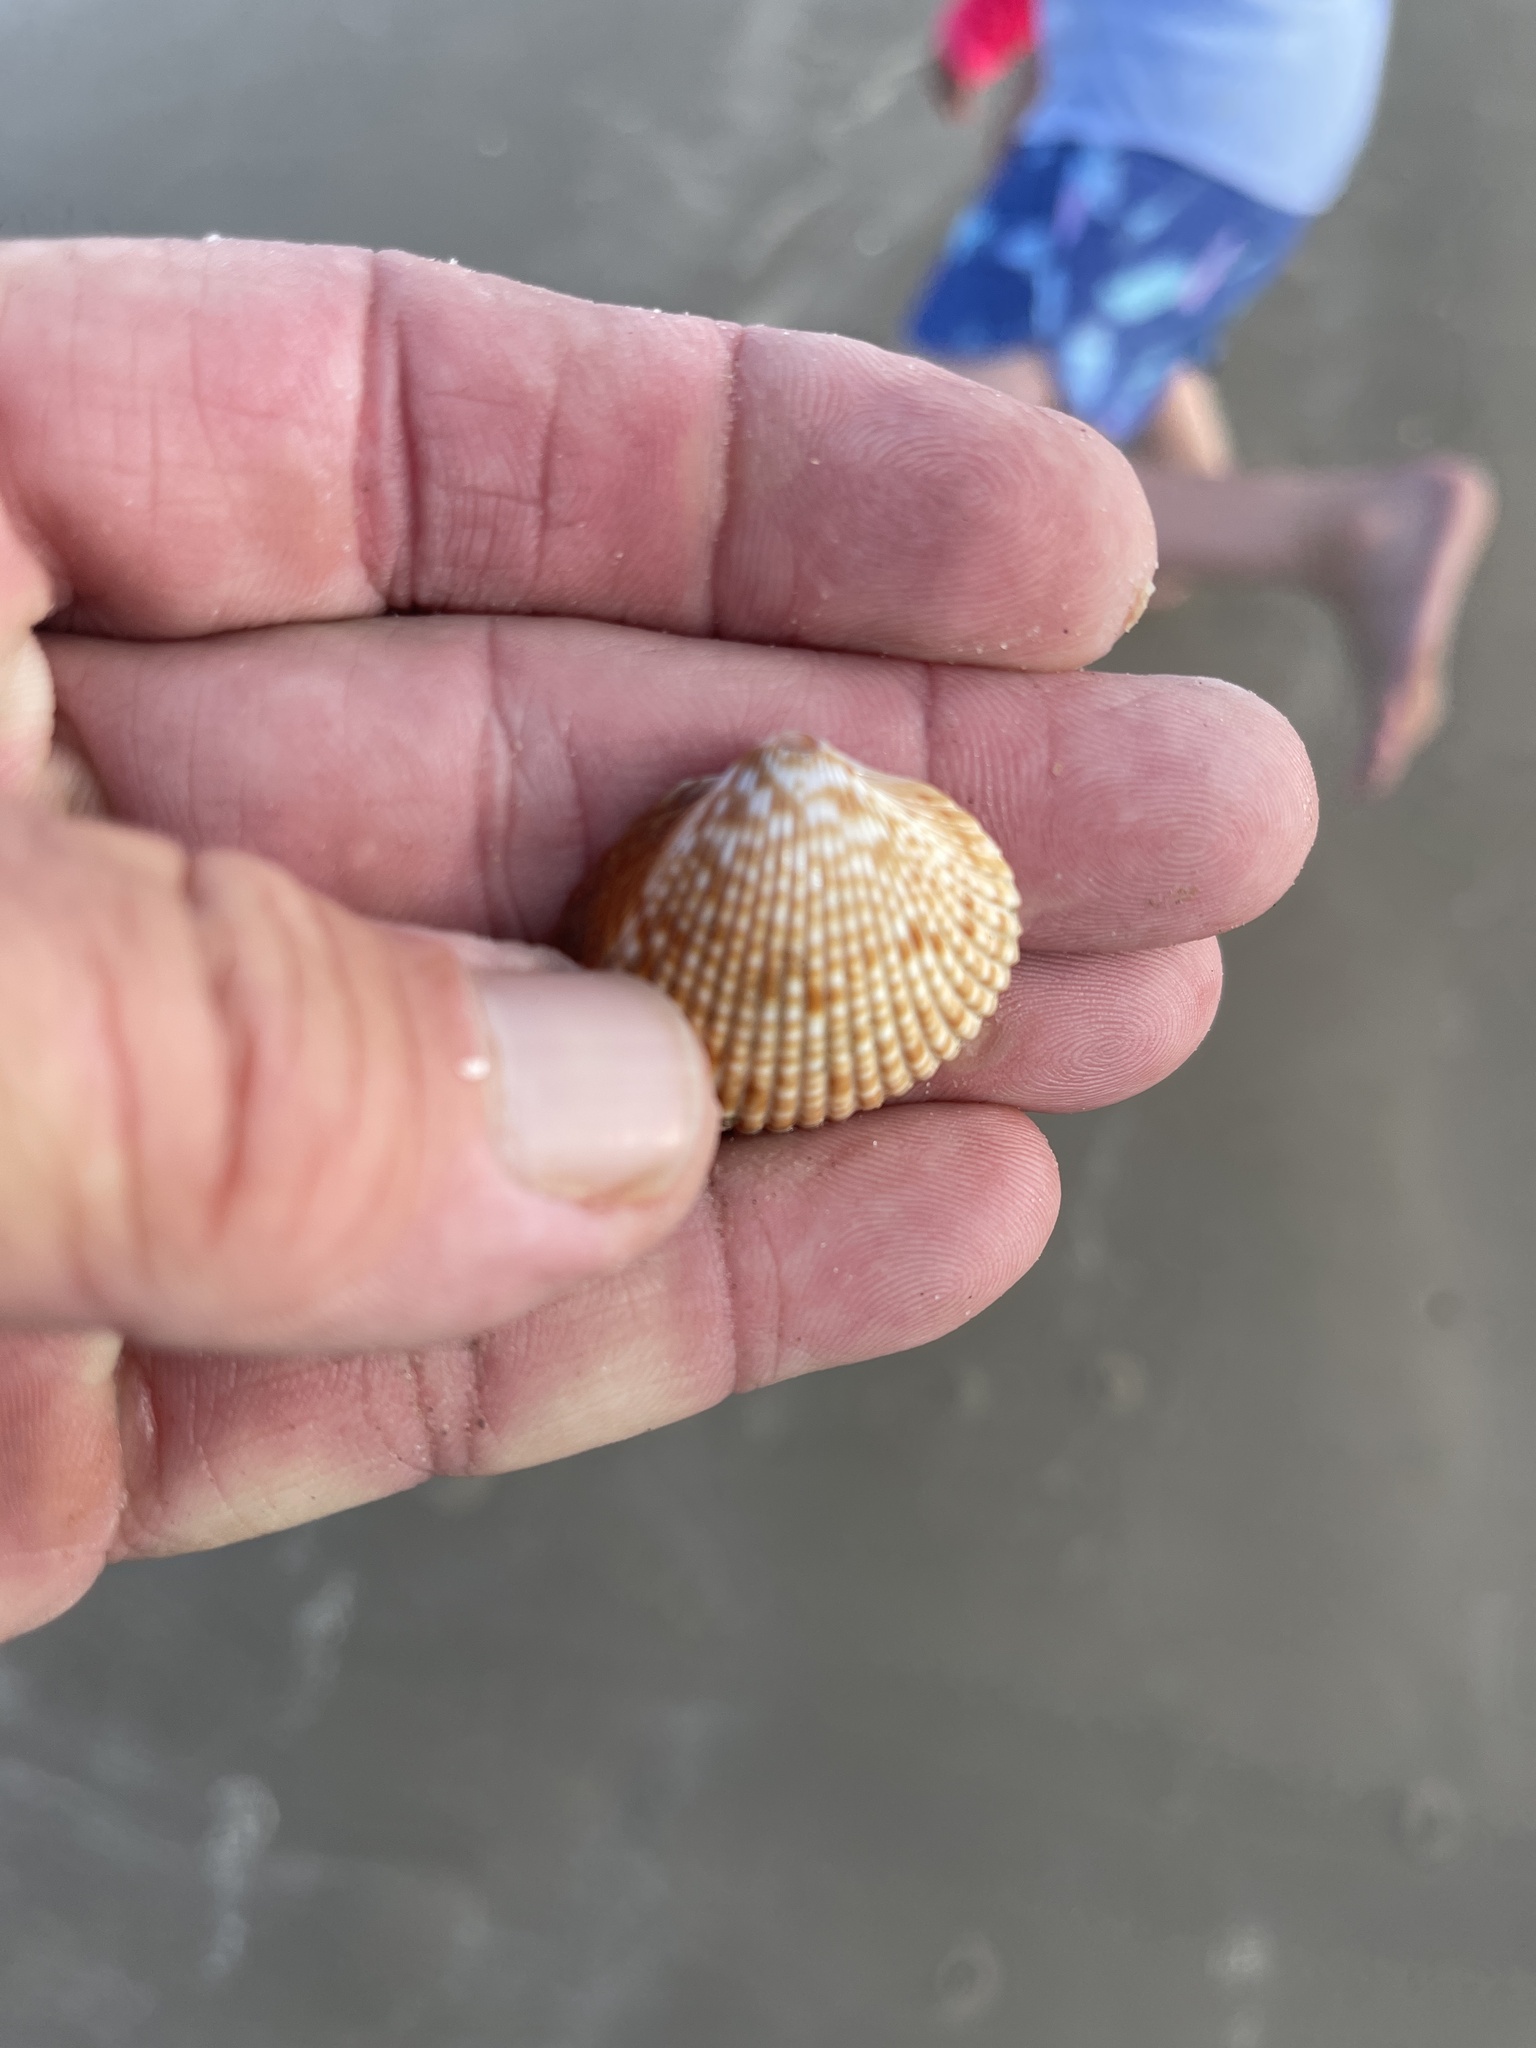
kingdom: Animalia
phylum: Mollusca
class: Bivalvia
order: Cardiida
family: Cardiidae
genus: Dinocardium
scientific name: Dinocardium robustum
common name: Atlantic giant cockle
